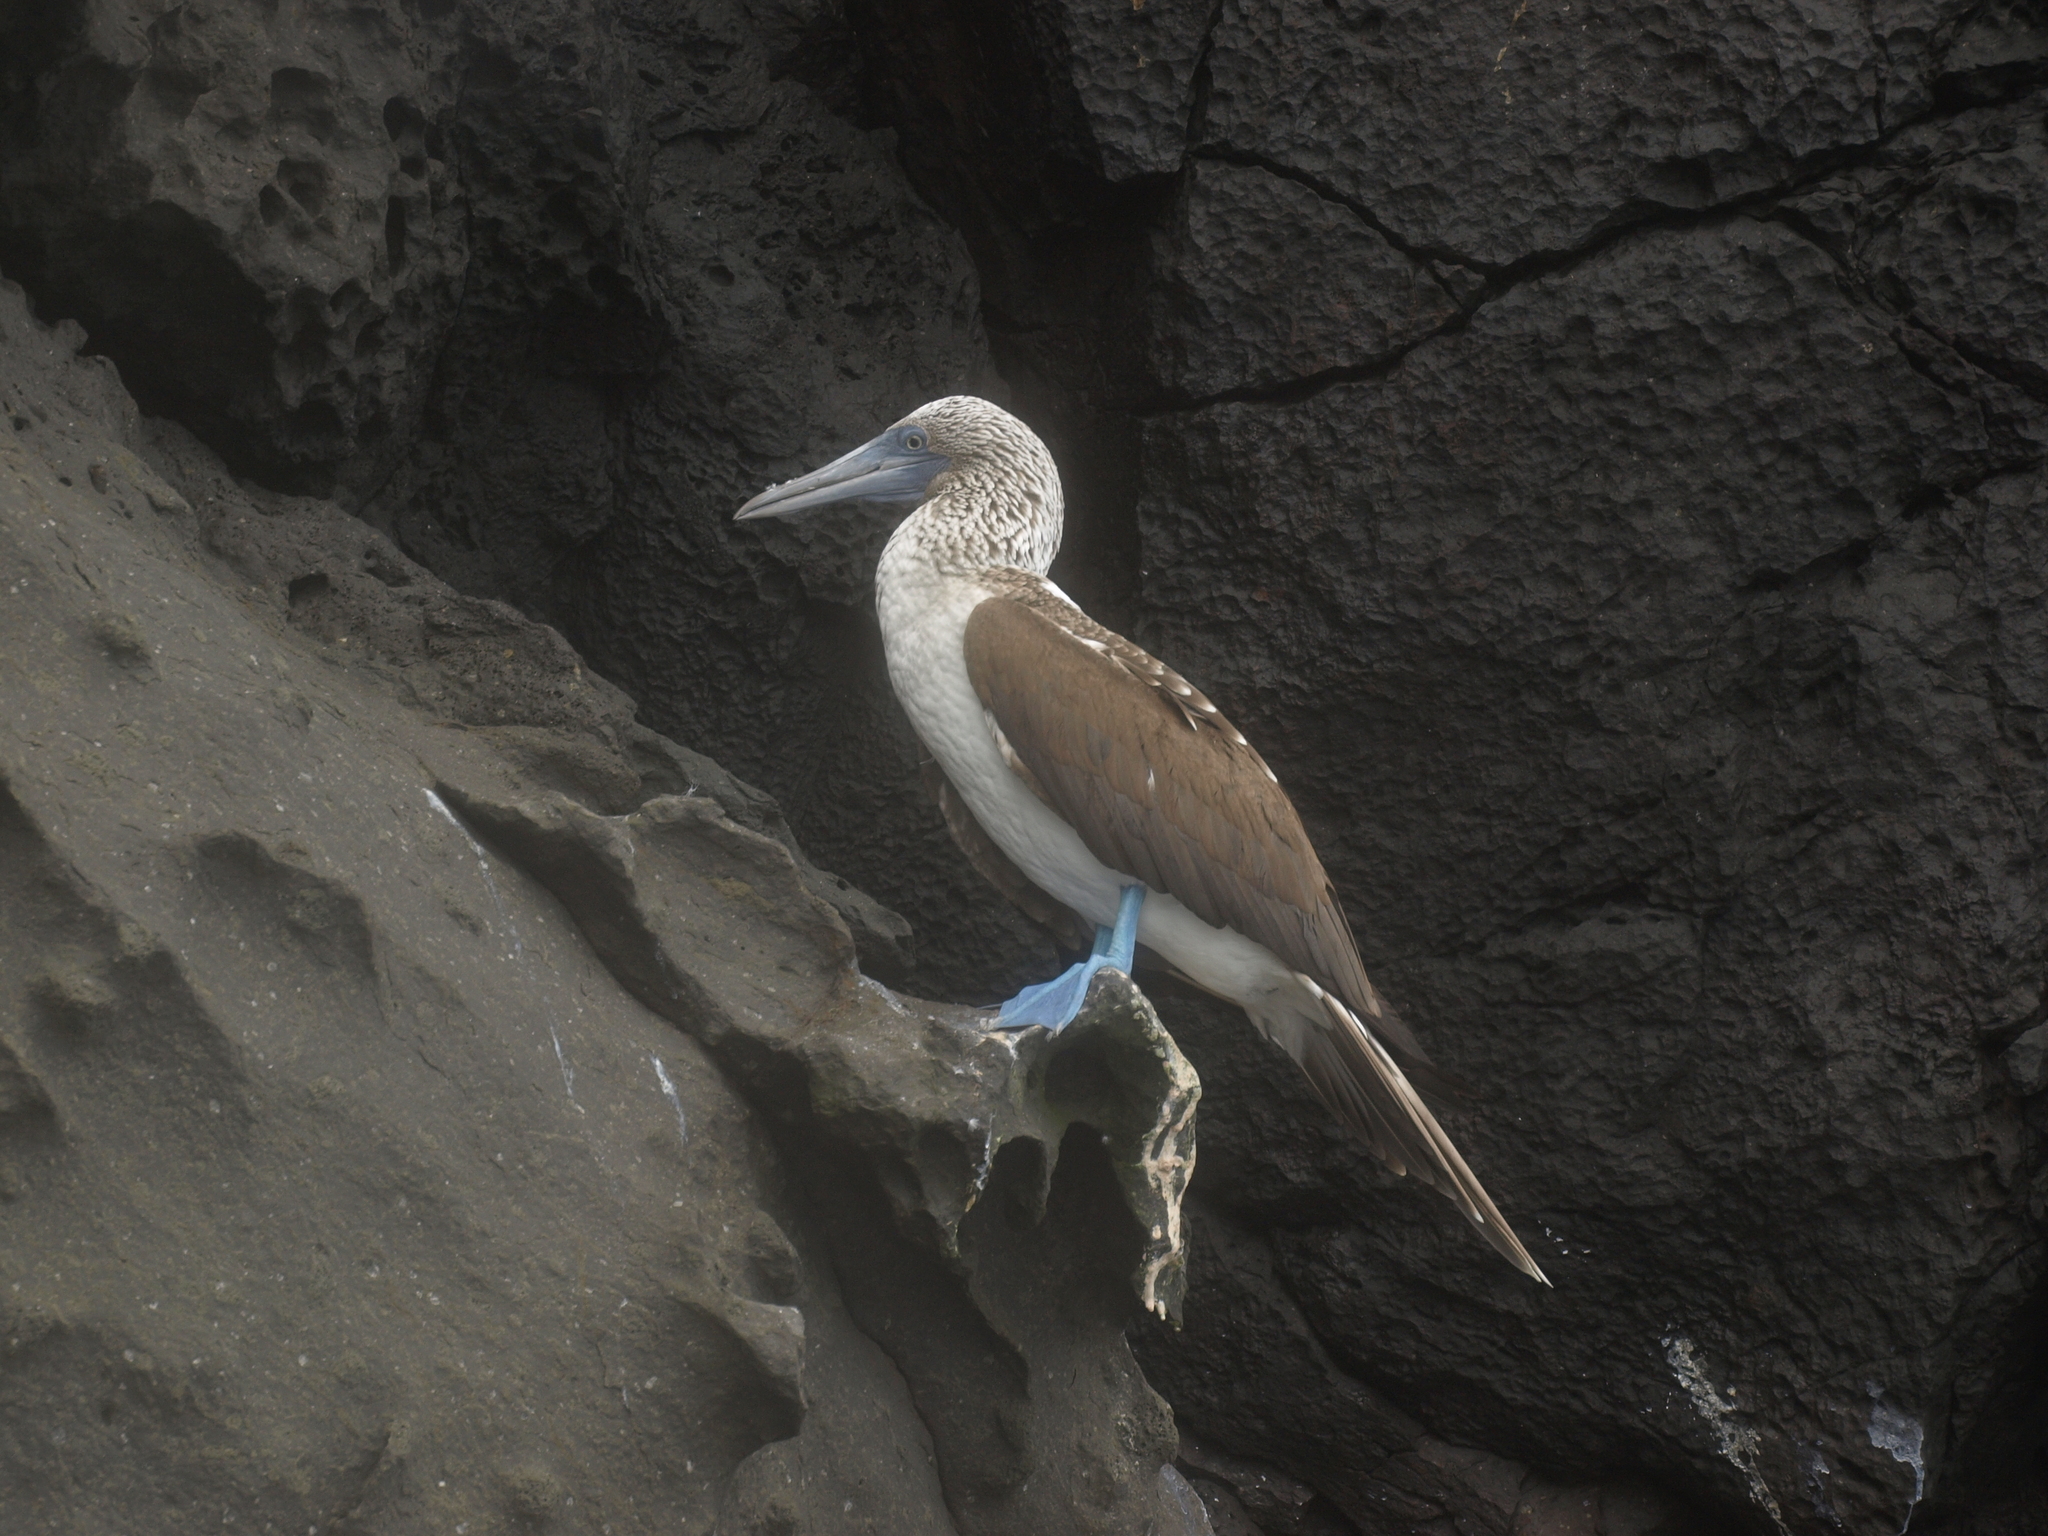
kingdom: Animalia
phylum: Chordata
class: Aves
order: Suliformes
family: Sulidae
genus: Sula
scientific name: Sula nebouxii
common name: Blue-footed booby
